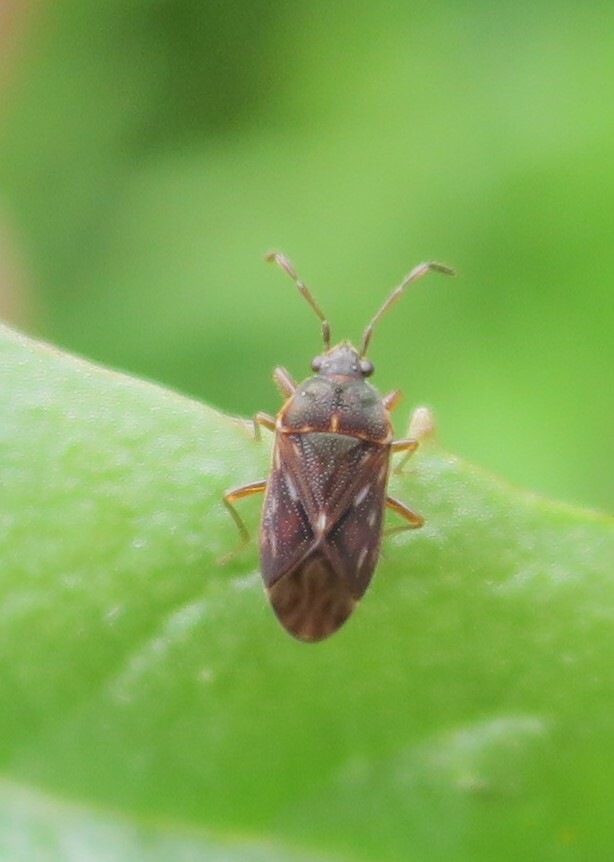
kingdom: Animalia
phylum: Arthropoda
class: Insecta
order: Hemiptera
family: Rhyparochromidae
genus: Targarema
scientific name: Targarema stali
